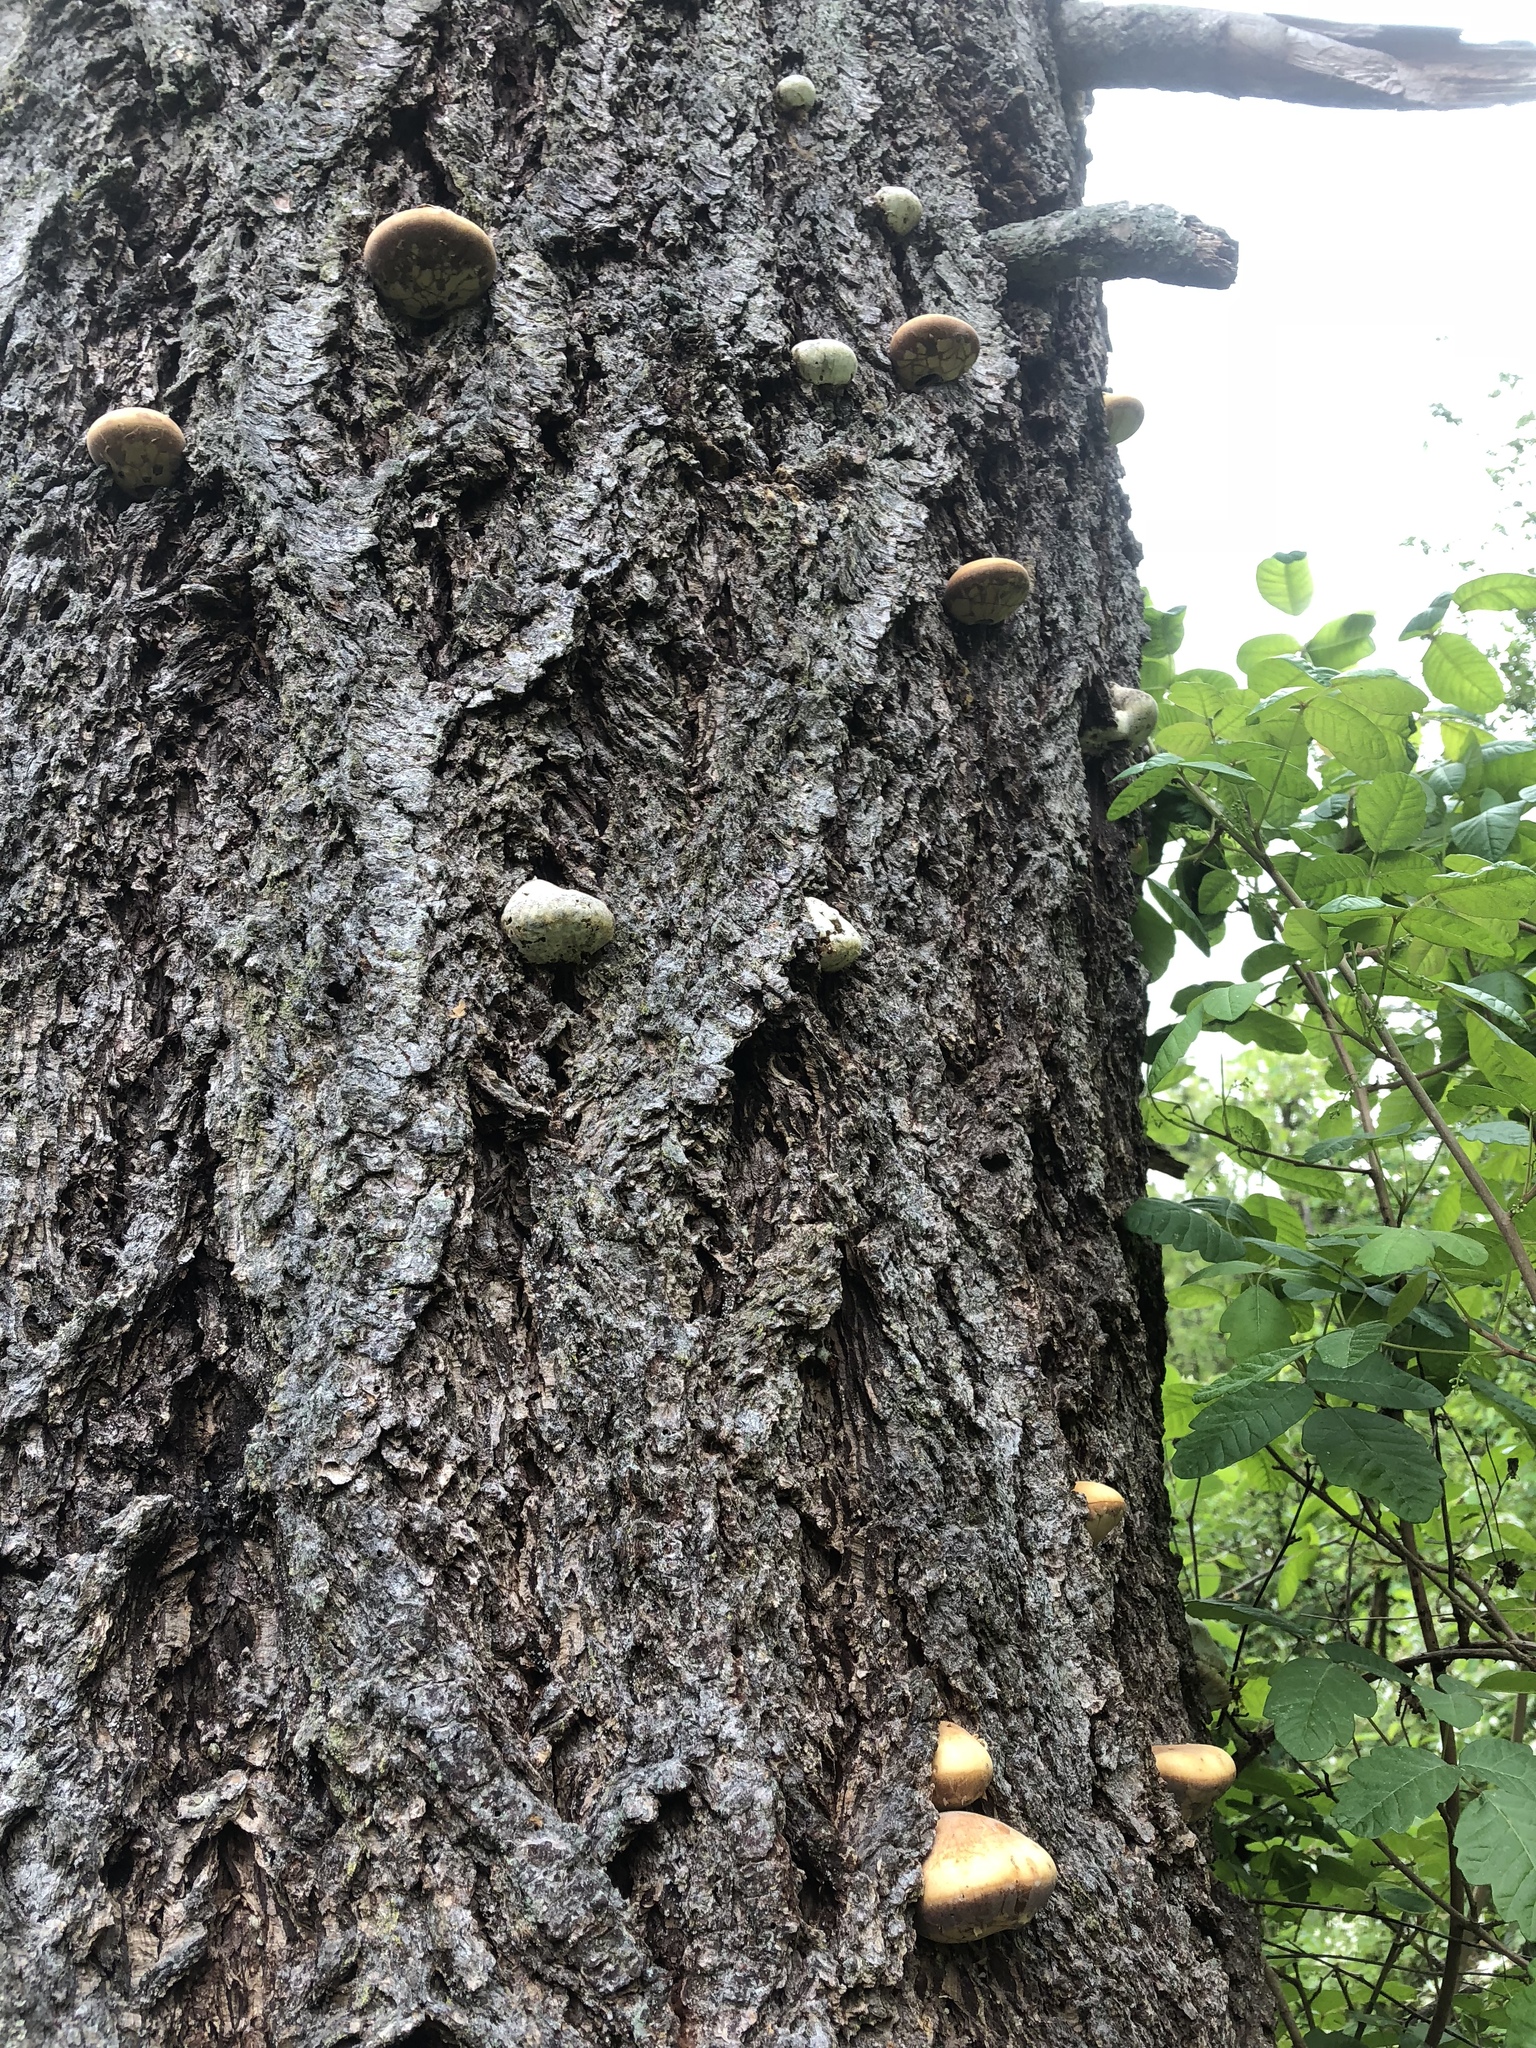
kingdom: Fungi
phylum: Basidiomycota
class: Agaricomycetes
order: Polyporales
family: Polyporaceae
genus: Cryptoporus
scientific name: Cryptoporus volvatus
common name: Veiled polypore
